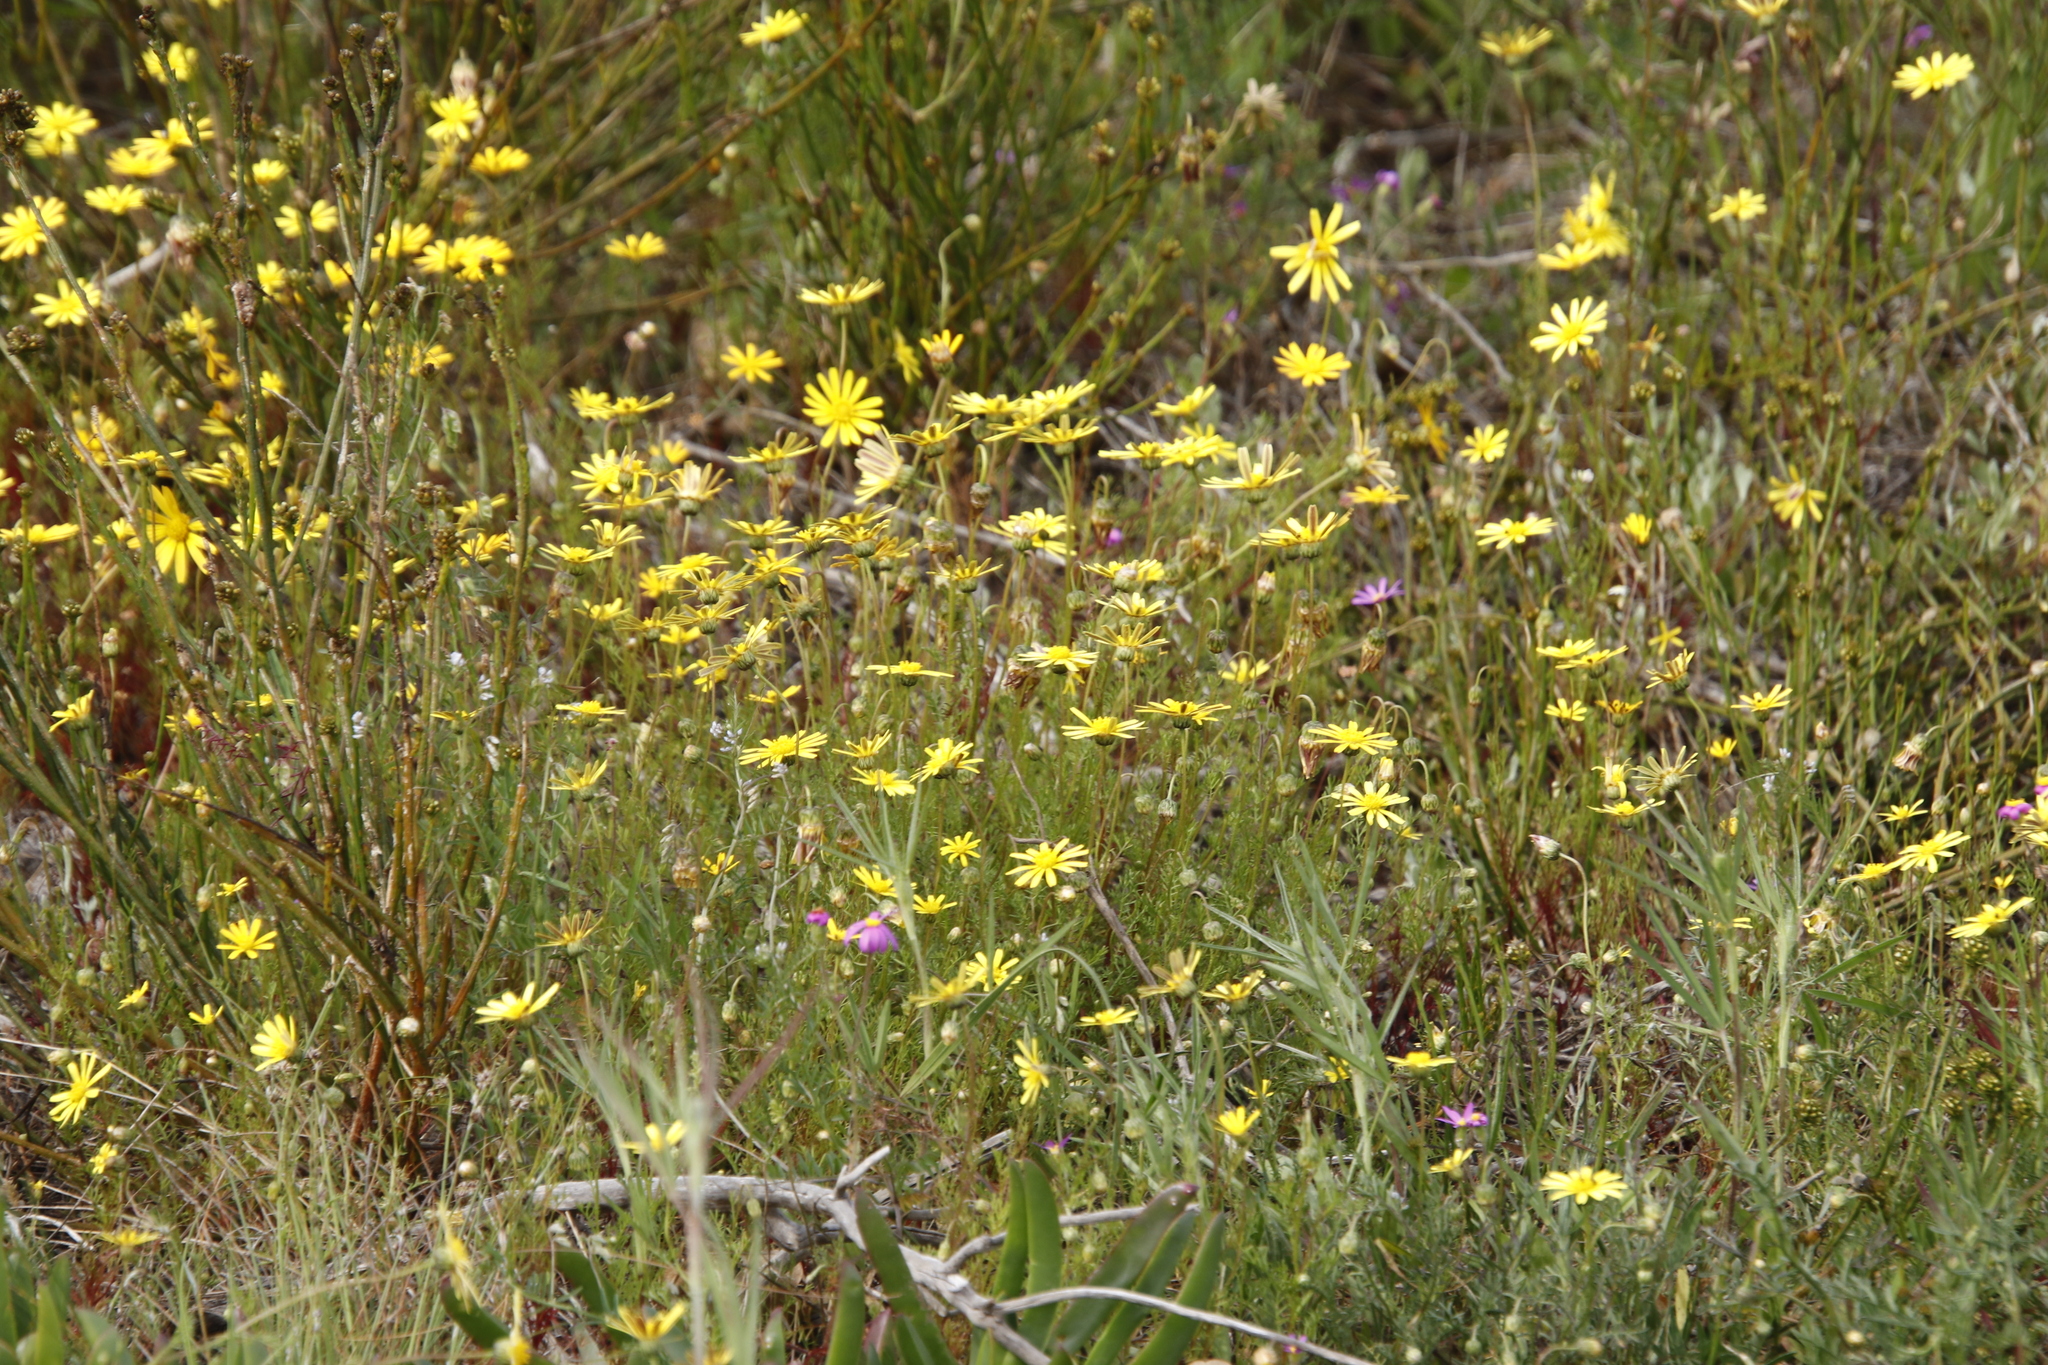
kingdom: Plantae
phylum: Tracheophyta
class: Magnoliopsida
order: Asterales
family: Asteraceae
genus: Ursinia
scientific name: Ursinia anthemoides
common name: Ursinia
